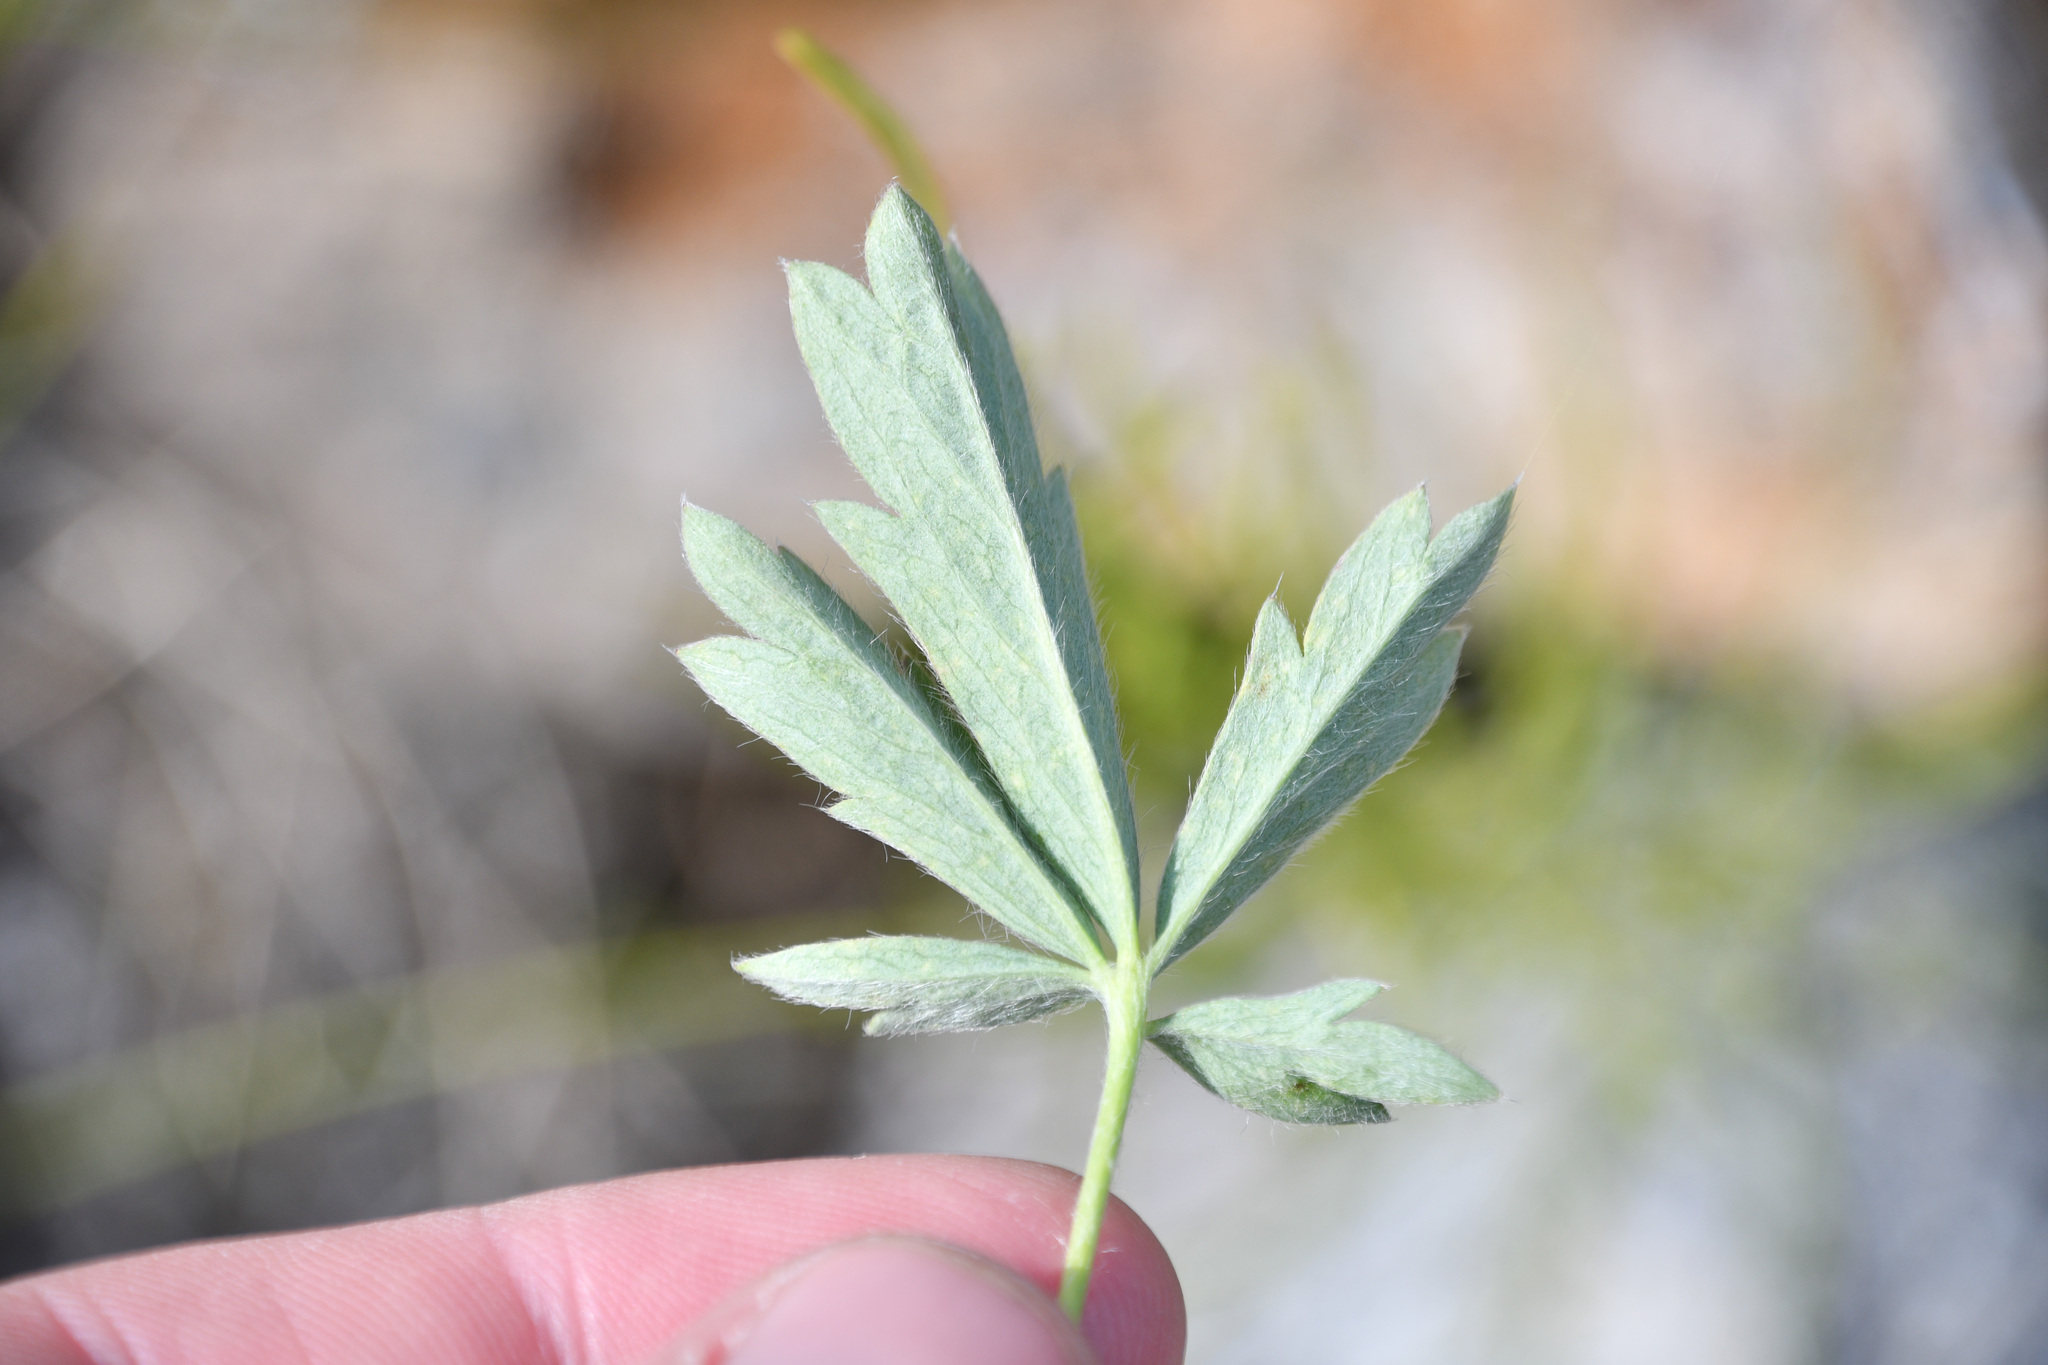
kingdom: Plantae
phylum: Tracheophyta
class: Magnoliopsida
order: Rosales
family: Rosaceae
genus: Potentilla
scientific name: Potentilla glaucophylla
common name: Blue-leaved cinquefoil
